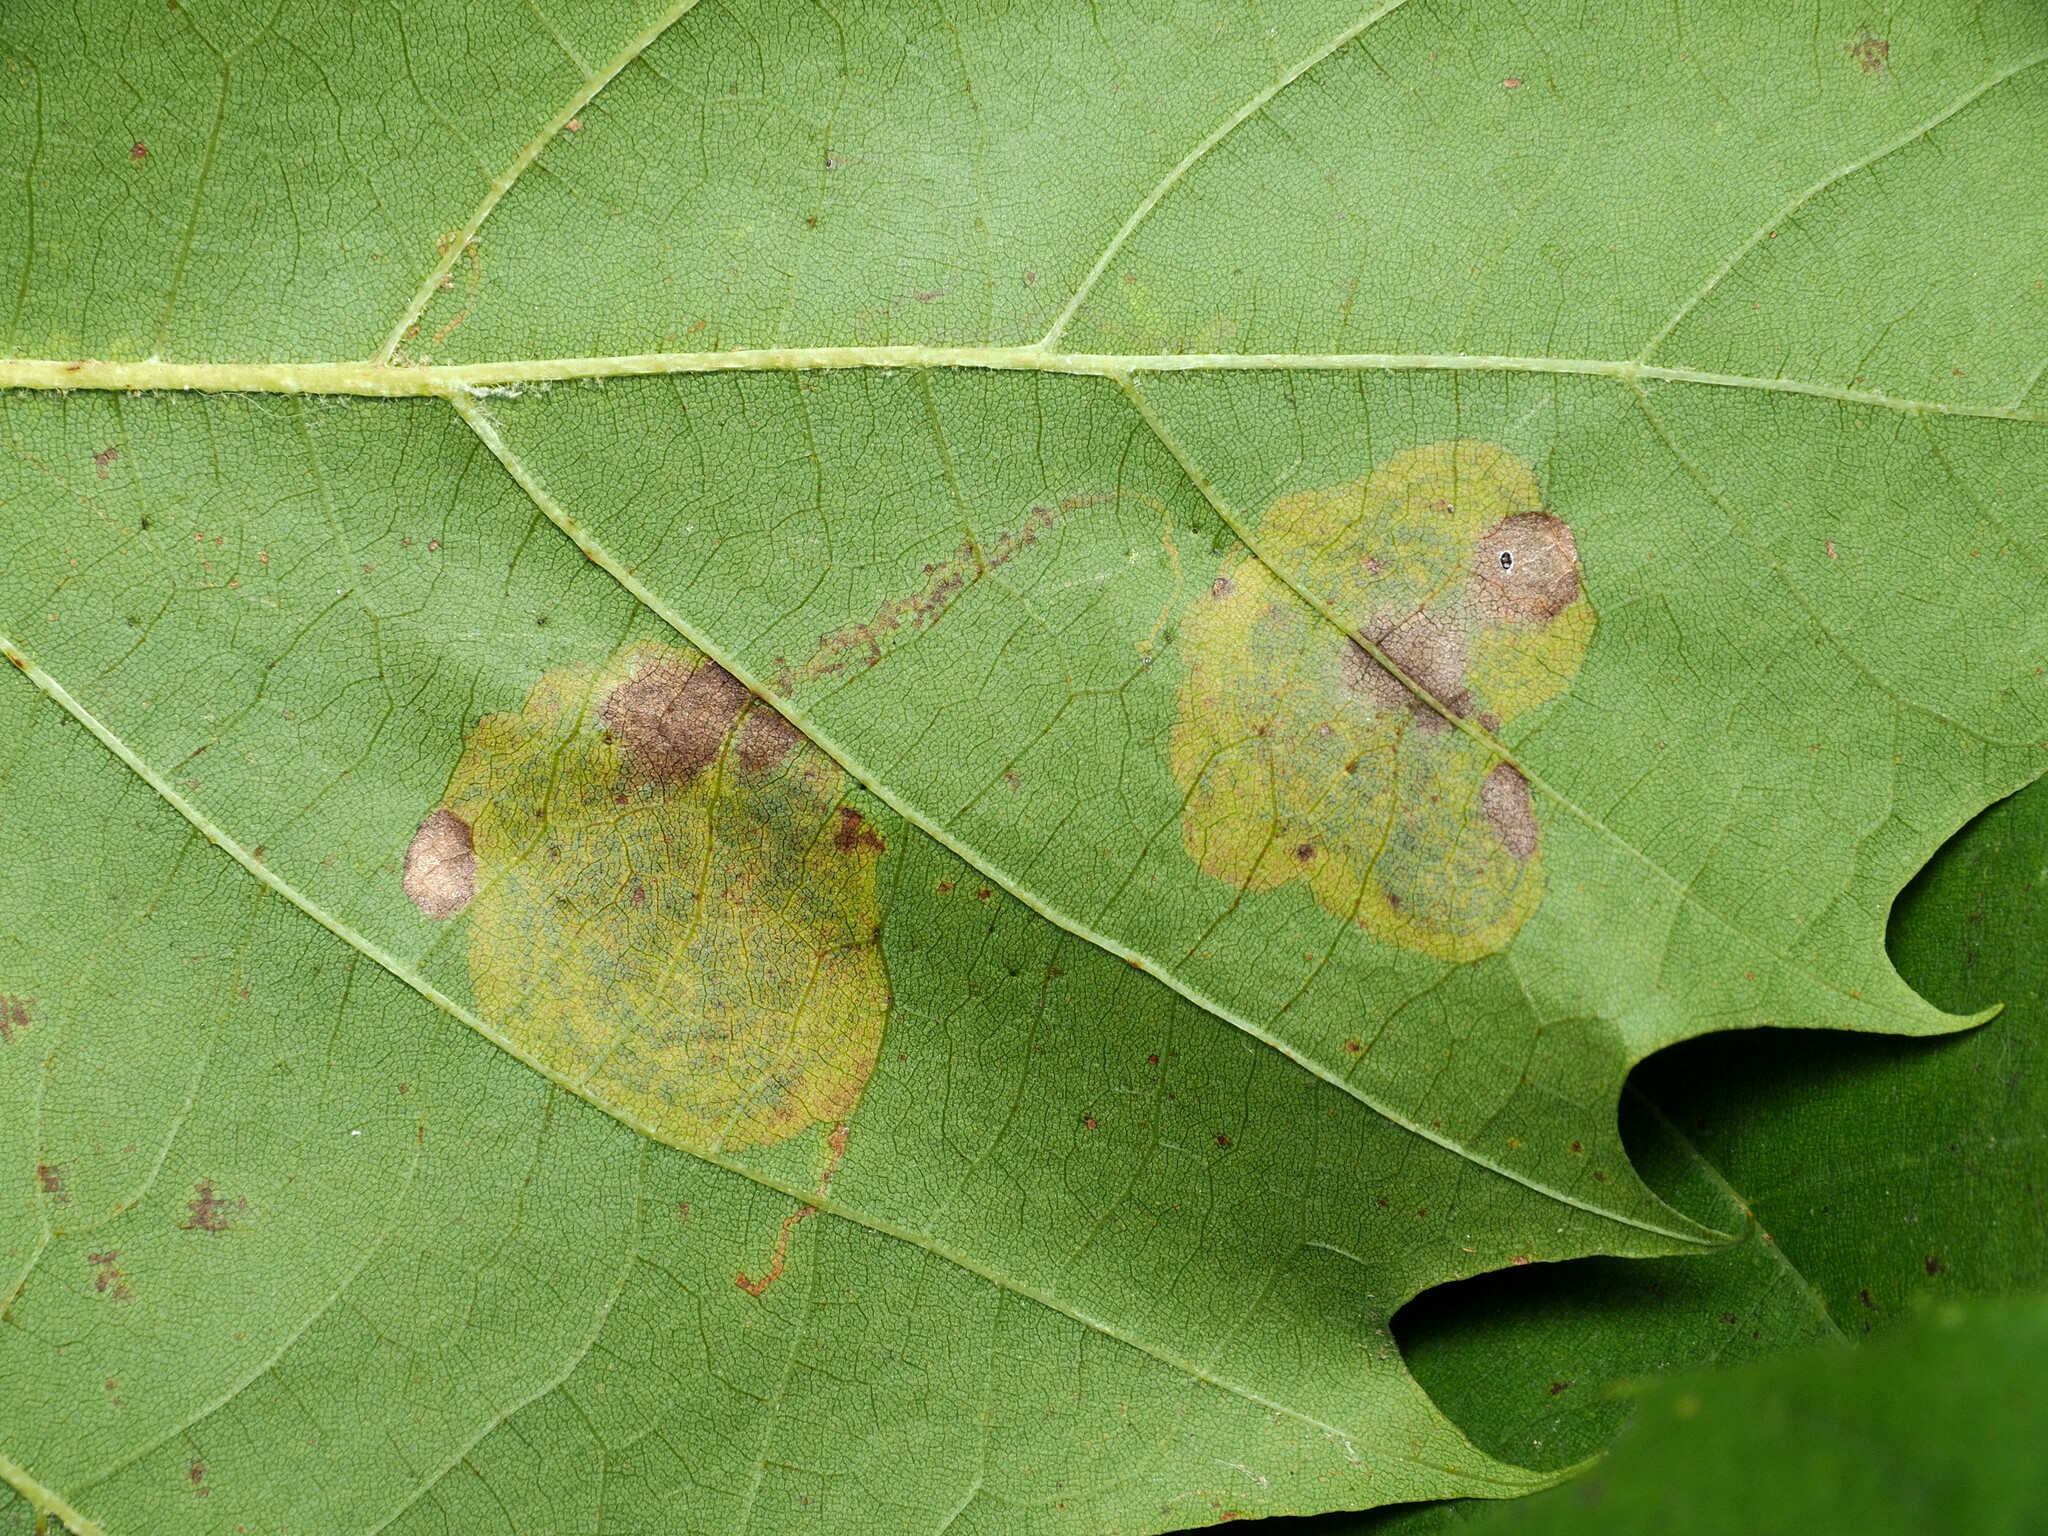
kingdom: Animalia
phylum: Arthropoda
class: Insecta
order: Lepidoptera
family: Nepticulidae
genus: Ectoedemia
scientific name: Ectoedemia platanella
